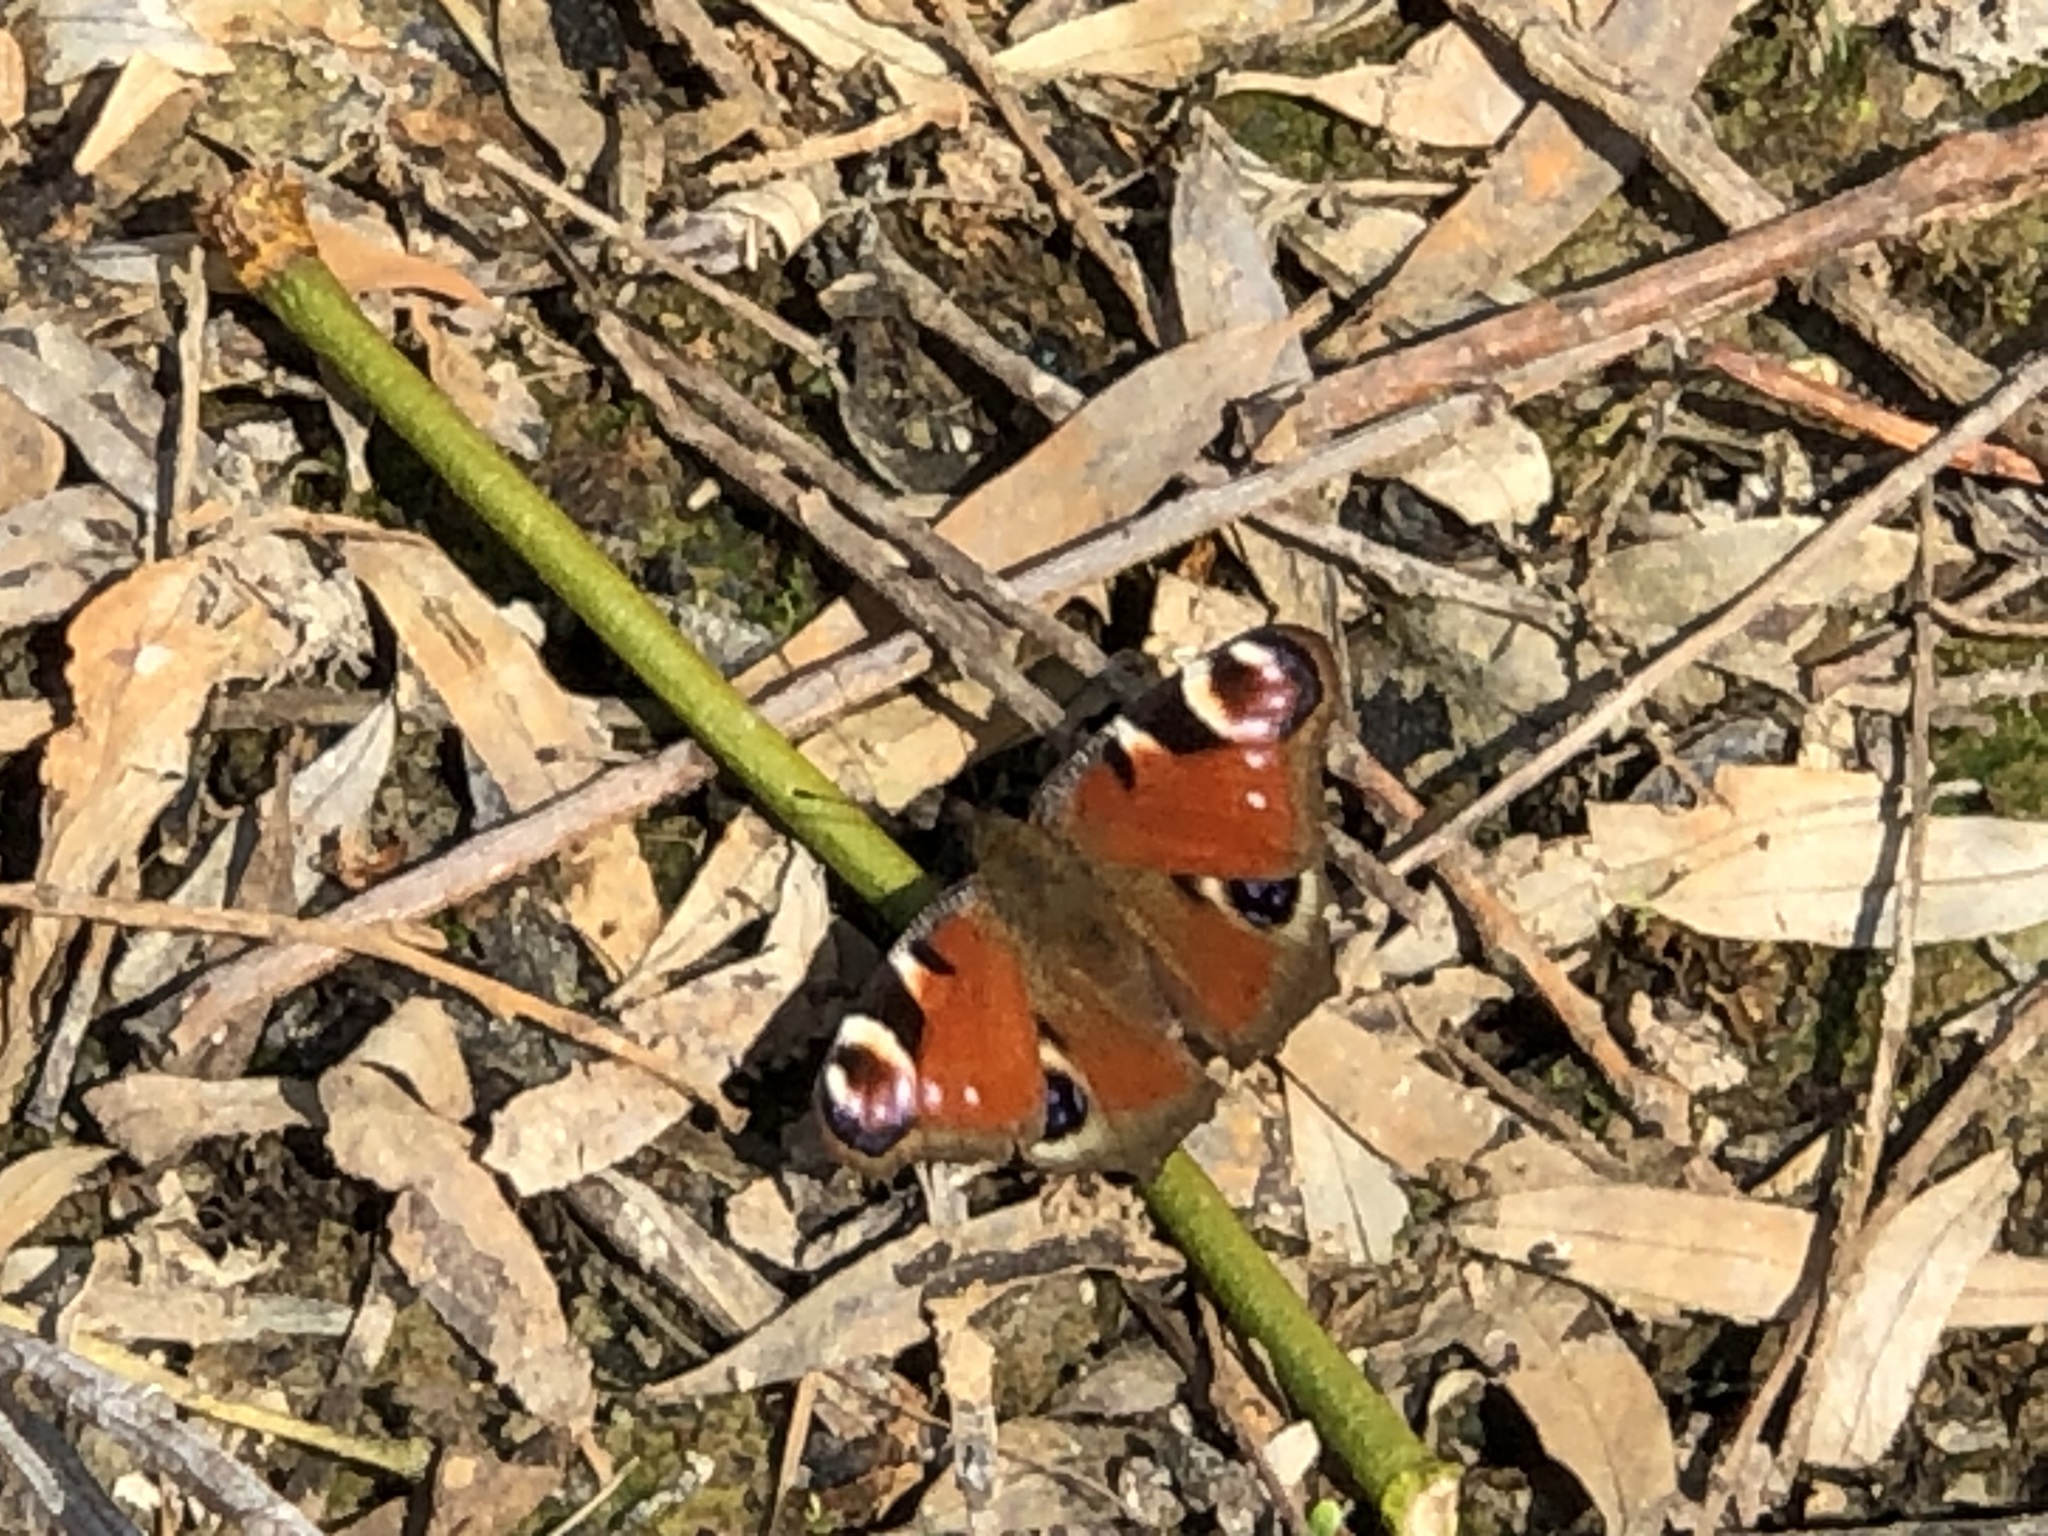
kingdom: Animalia
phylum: Arthropoda
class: Insecta
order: Lepidoptera
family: Nymphalidae
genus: Aglais
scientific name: Aglais io
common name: Peacock
